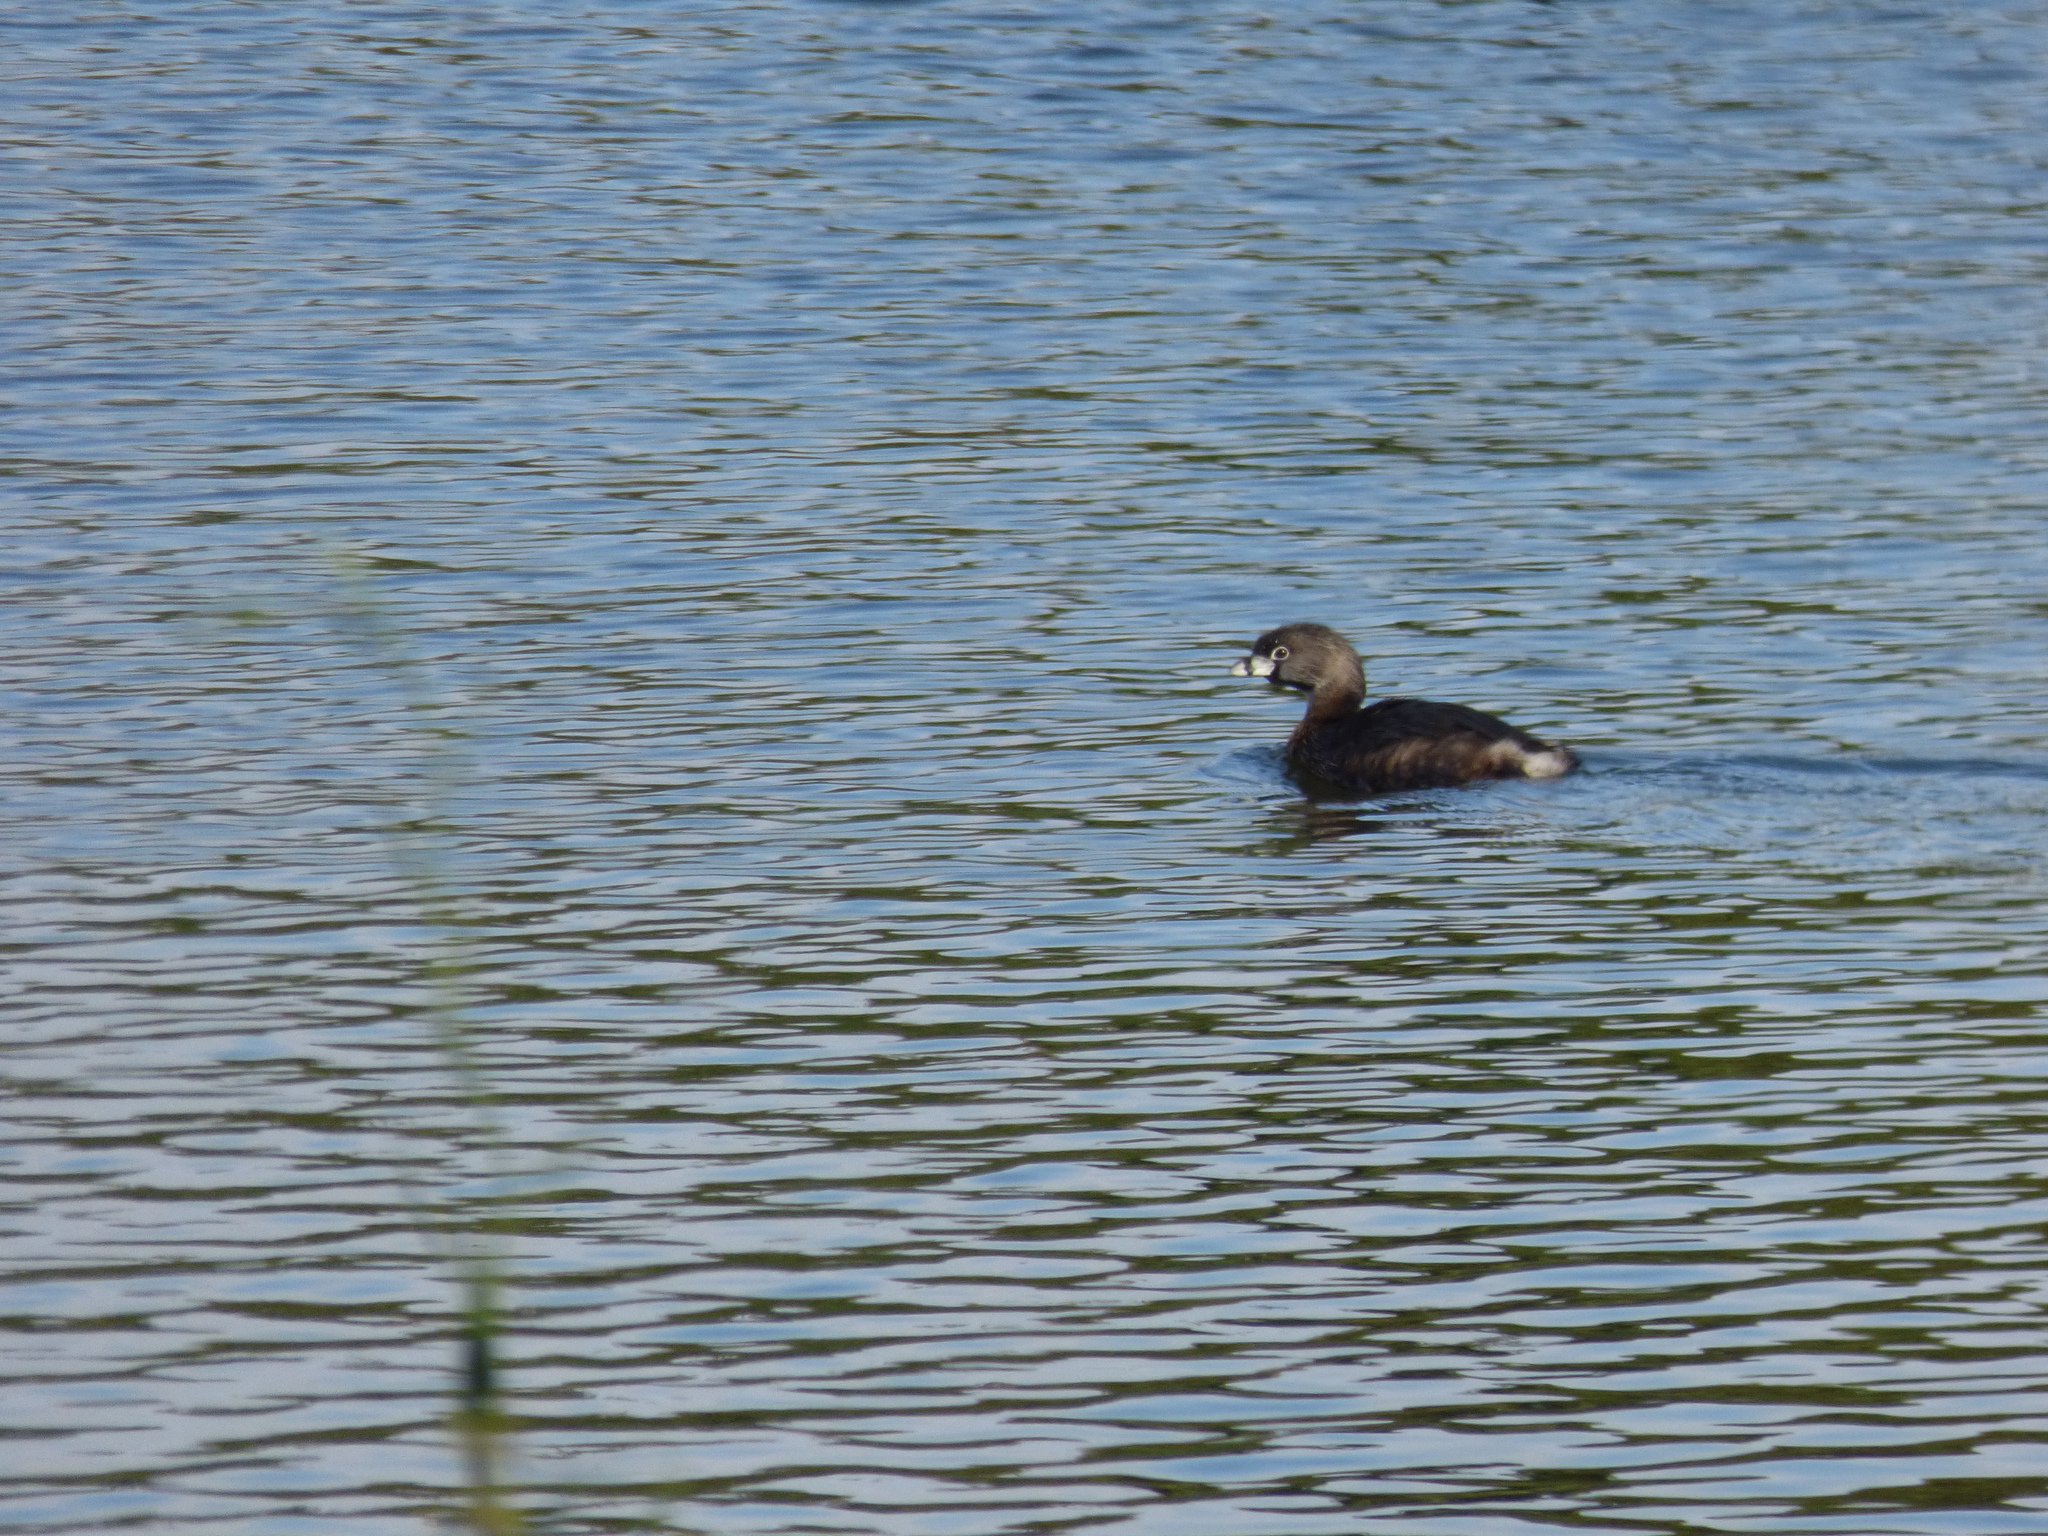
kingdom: Animalia
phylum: Chordata
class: Aves
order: Podicipediformes
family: Podicipedidae
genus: Podilymbus
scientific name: Podilymbus podiceps
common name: Pied-billed grebe
